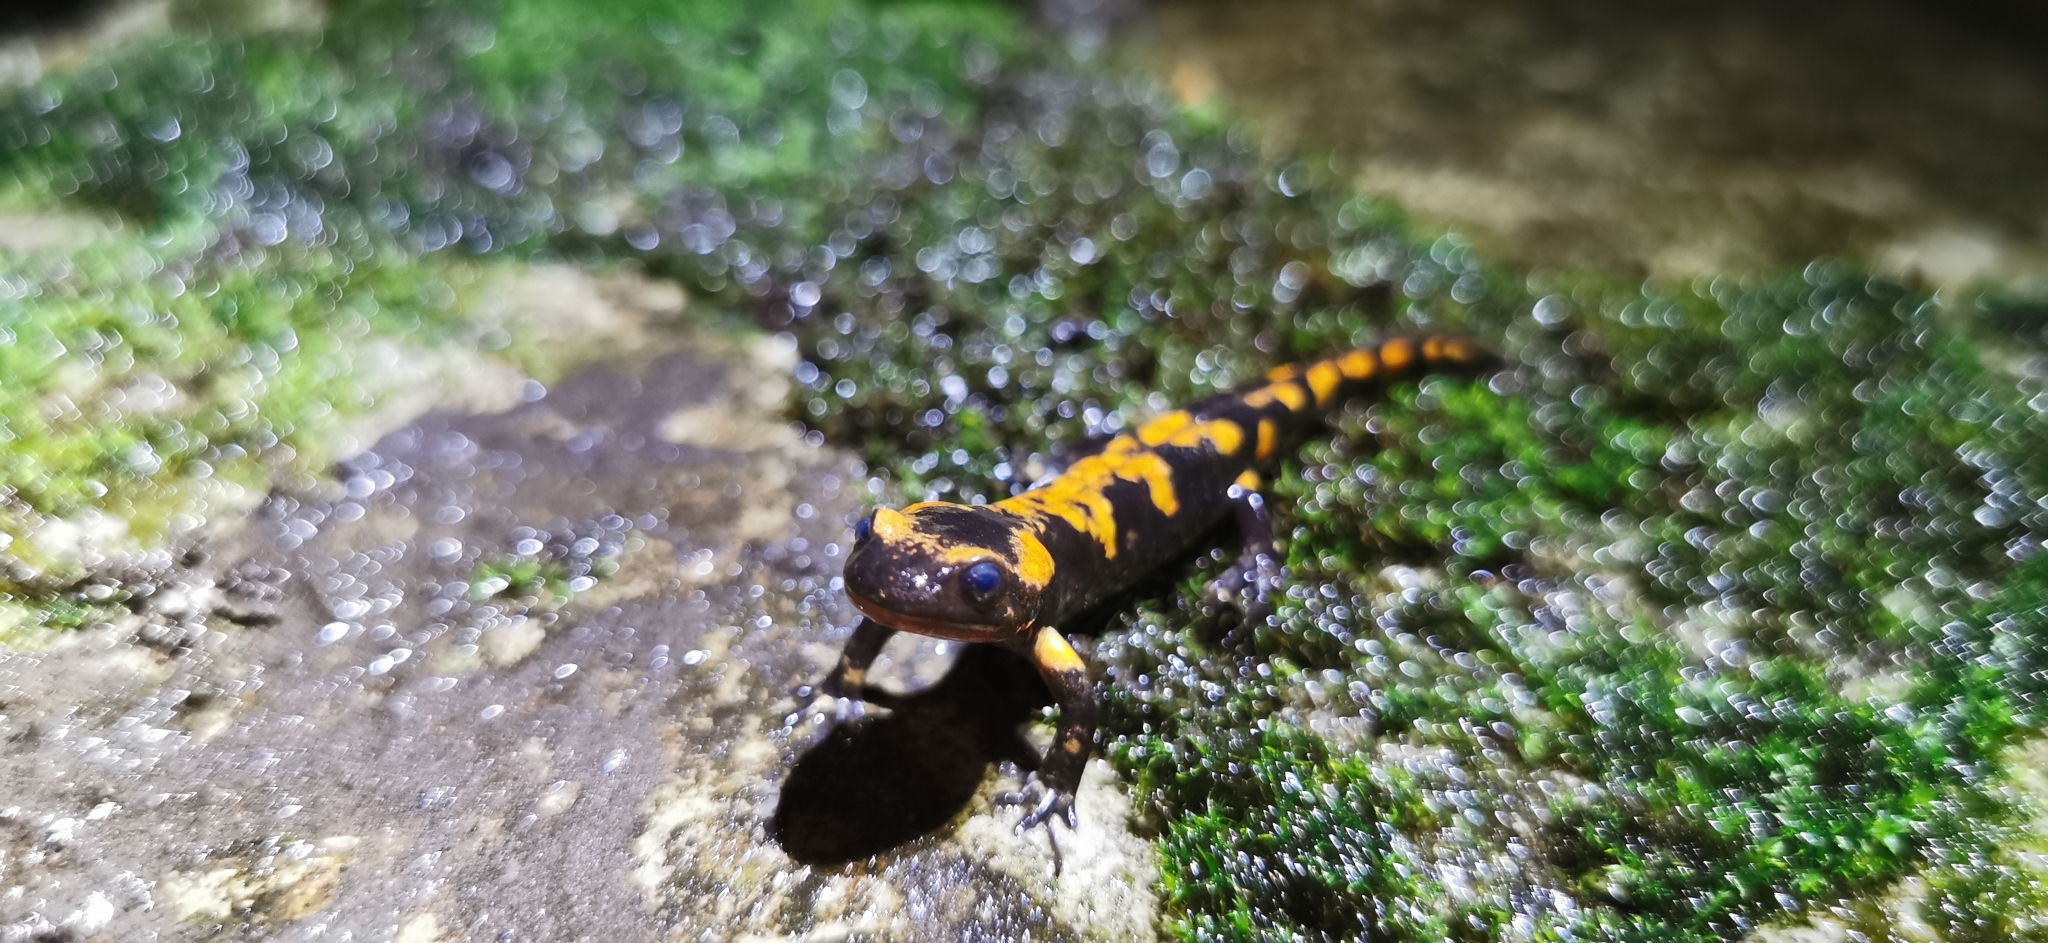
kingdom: Animalia
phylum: Chordata
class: Amphibia
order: Caudata
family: Salamandridae
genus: Salamandra
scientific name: Salamandra salamandra
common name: Fire salamander
